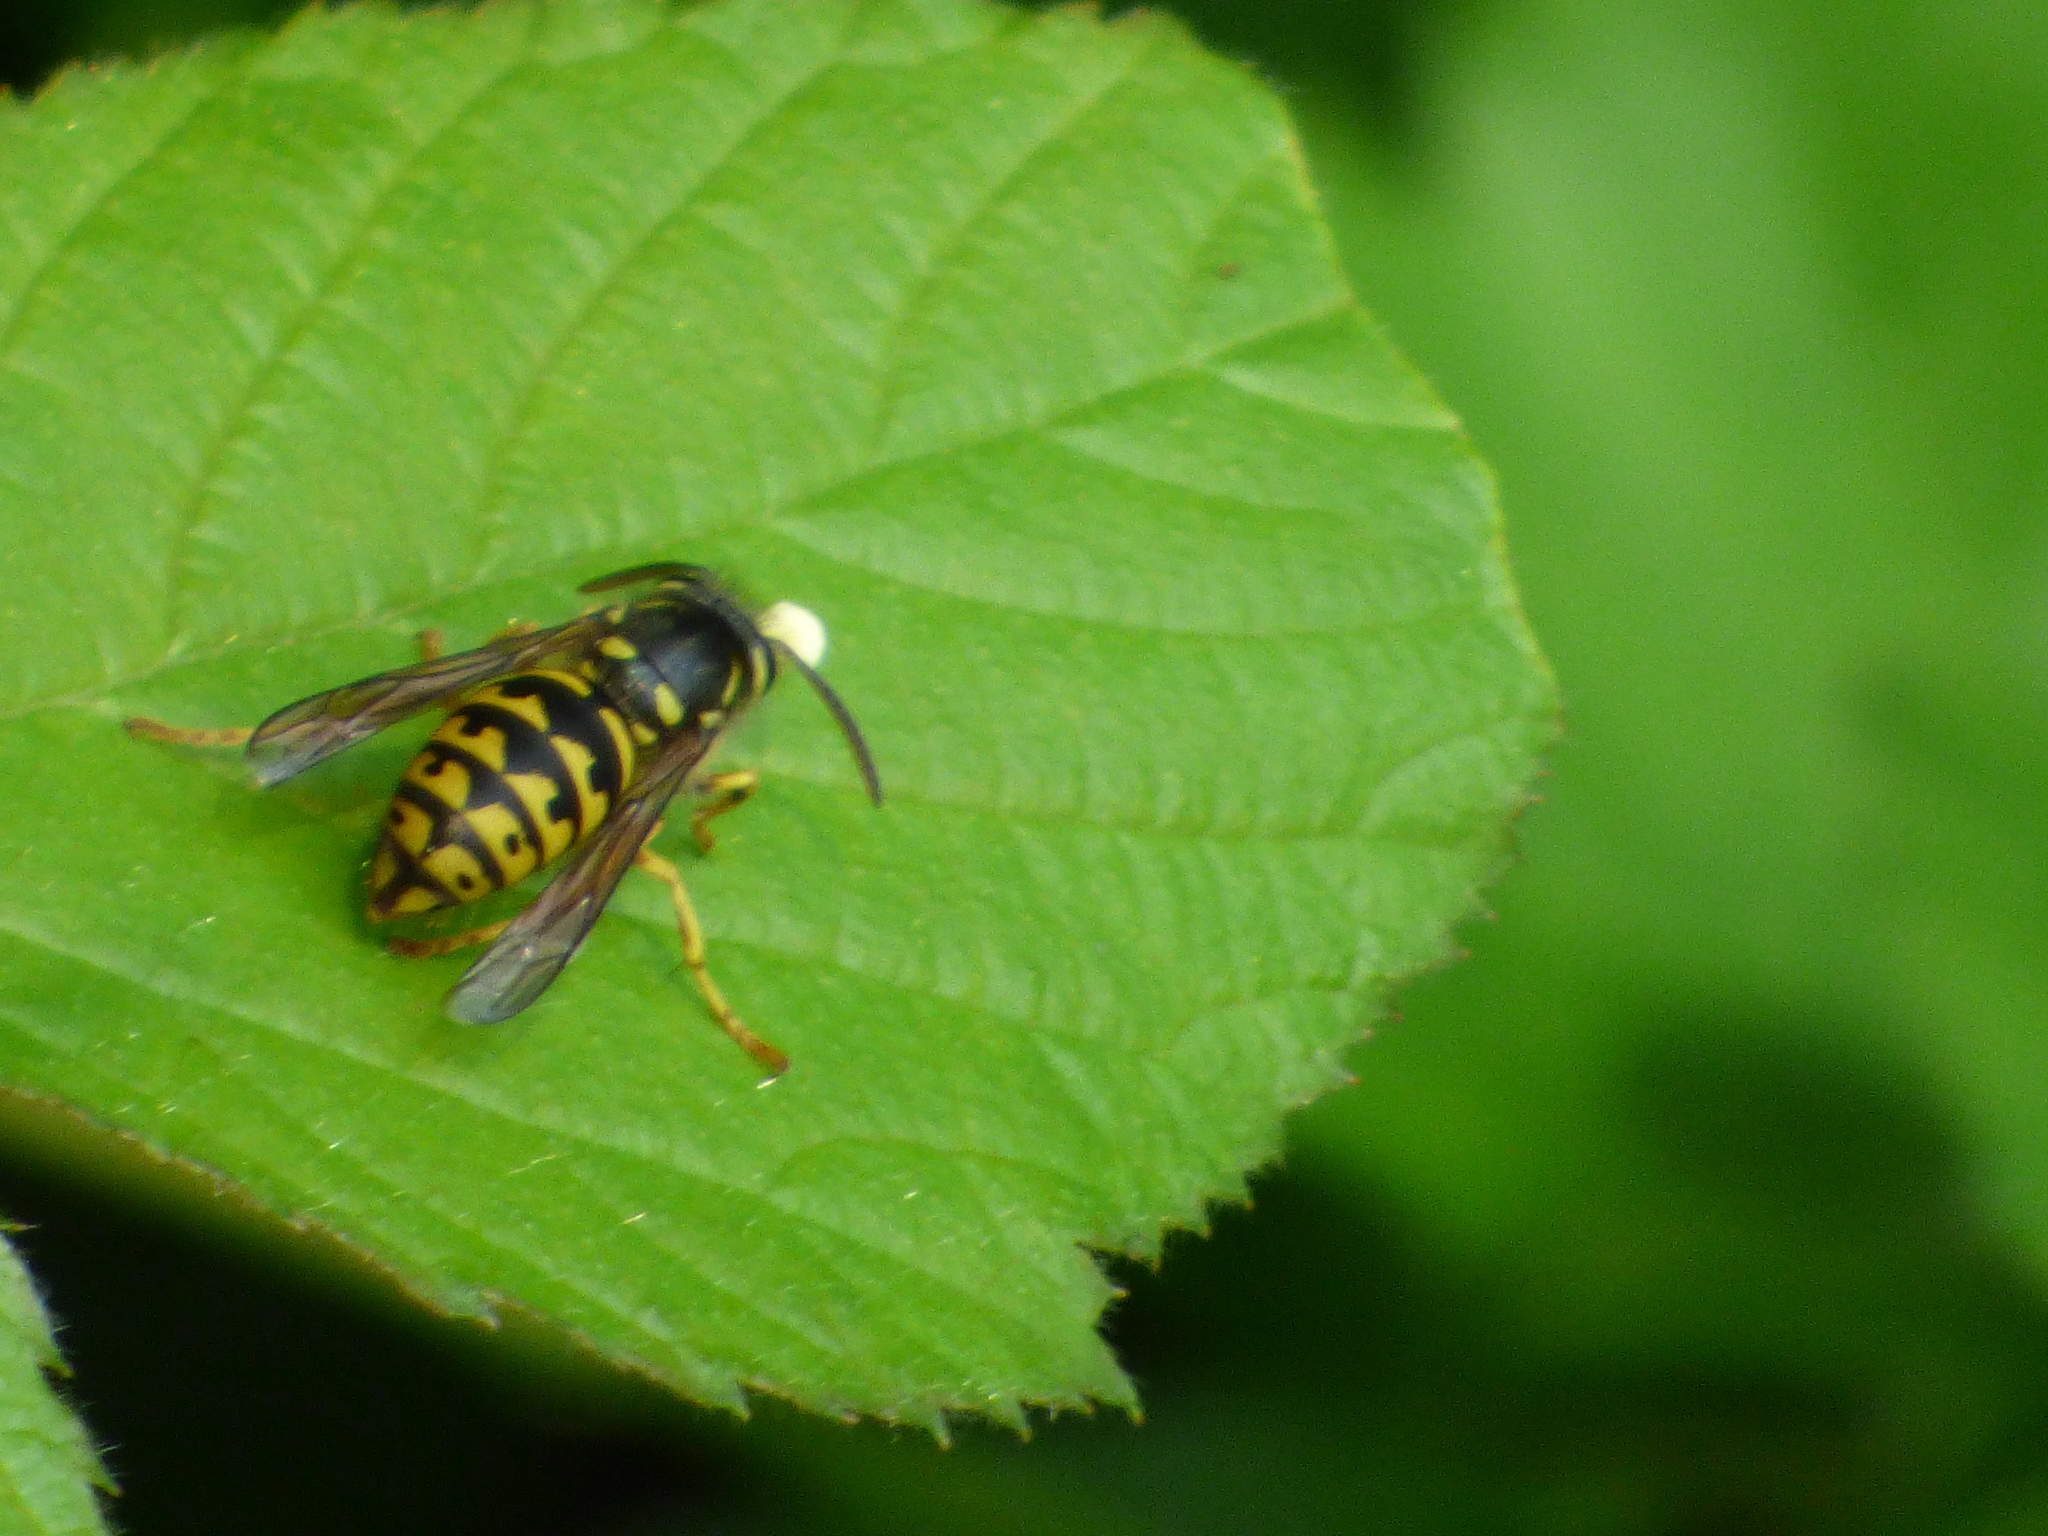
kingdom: Animalia
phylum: Arthropoda
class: Insecta
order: Hymenoptera
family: Vespidae
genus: Dolichovespula
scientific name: Dolichovespula arenaria
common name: Aerial yellowjacket
